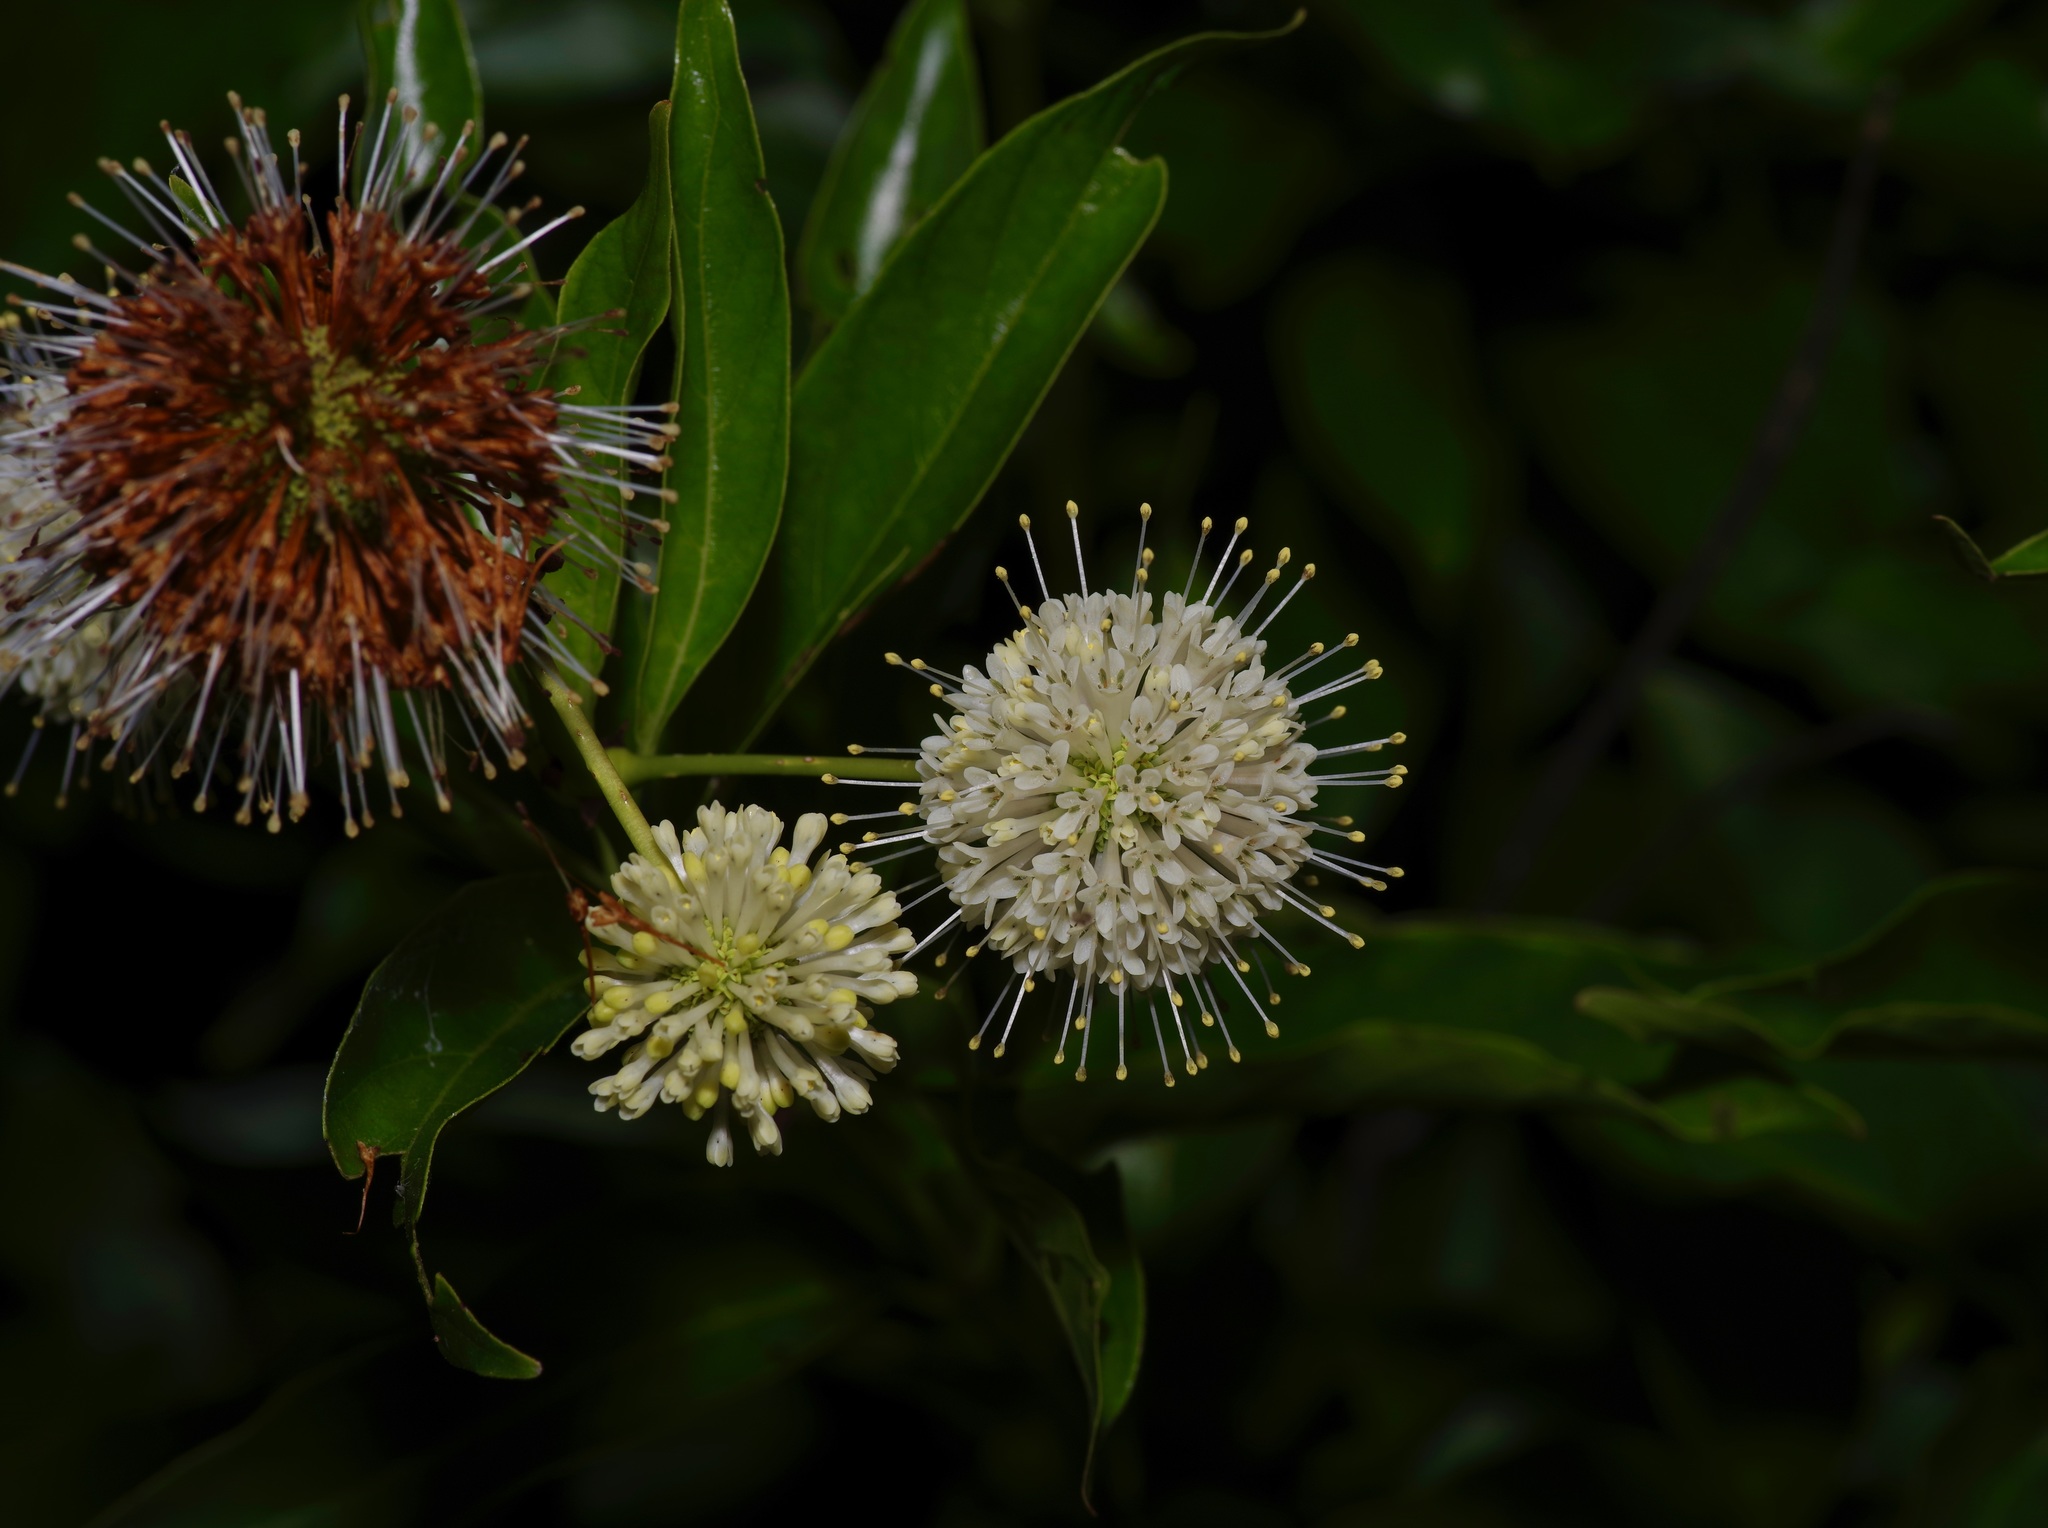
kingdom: Plantae
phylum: Tracheophyta
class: Magnoliopsida
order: Gentianales
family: Rubiaceae
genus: Cephalanthus
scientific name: Cephalanthus occidentalis
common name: Button-willow
